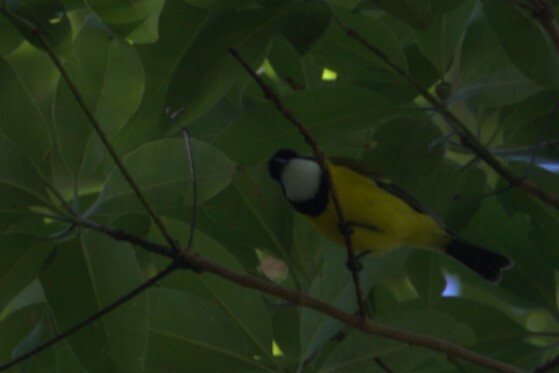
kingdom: Animalia
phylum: Chordata
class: Aves
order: Passeriformes
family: Pachycephalidae
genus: Pachycephala
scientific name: Pachycephala pectoralis
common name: Australian golden whistler
